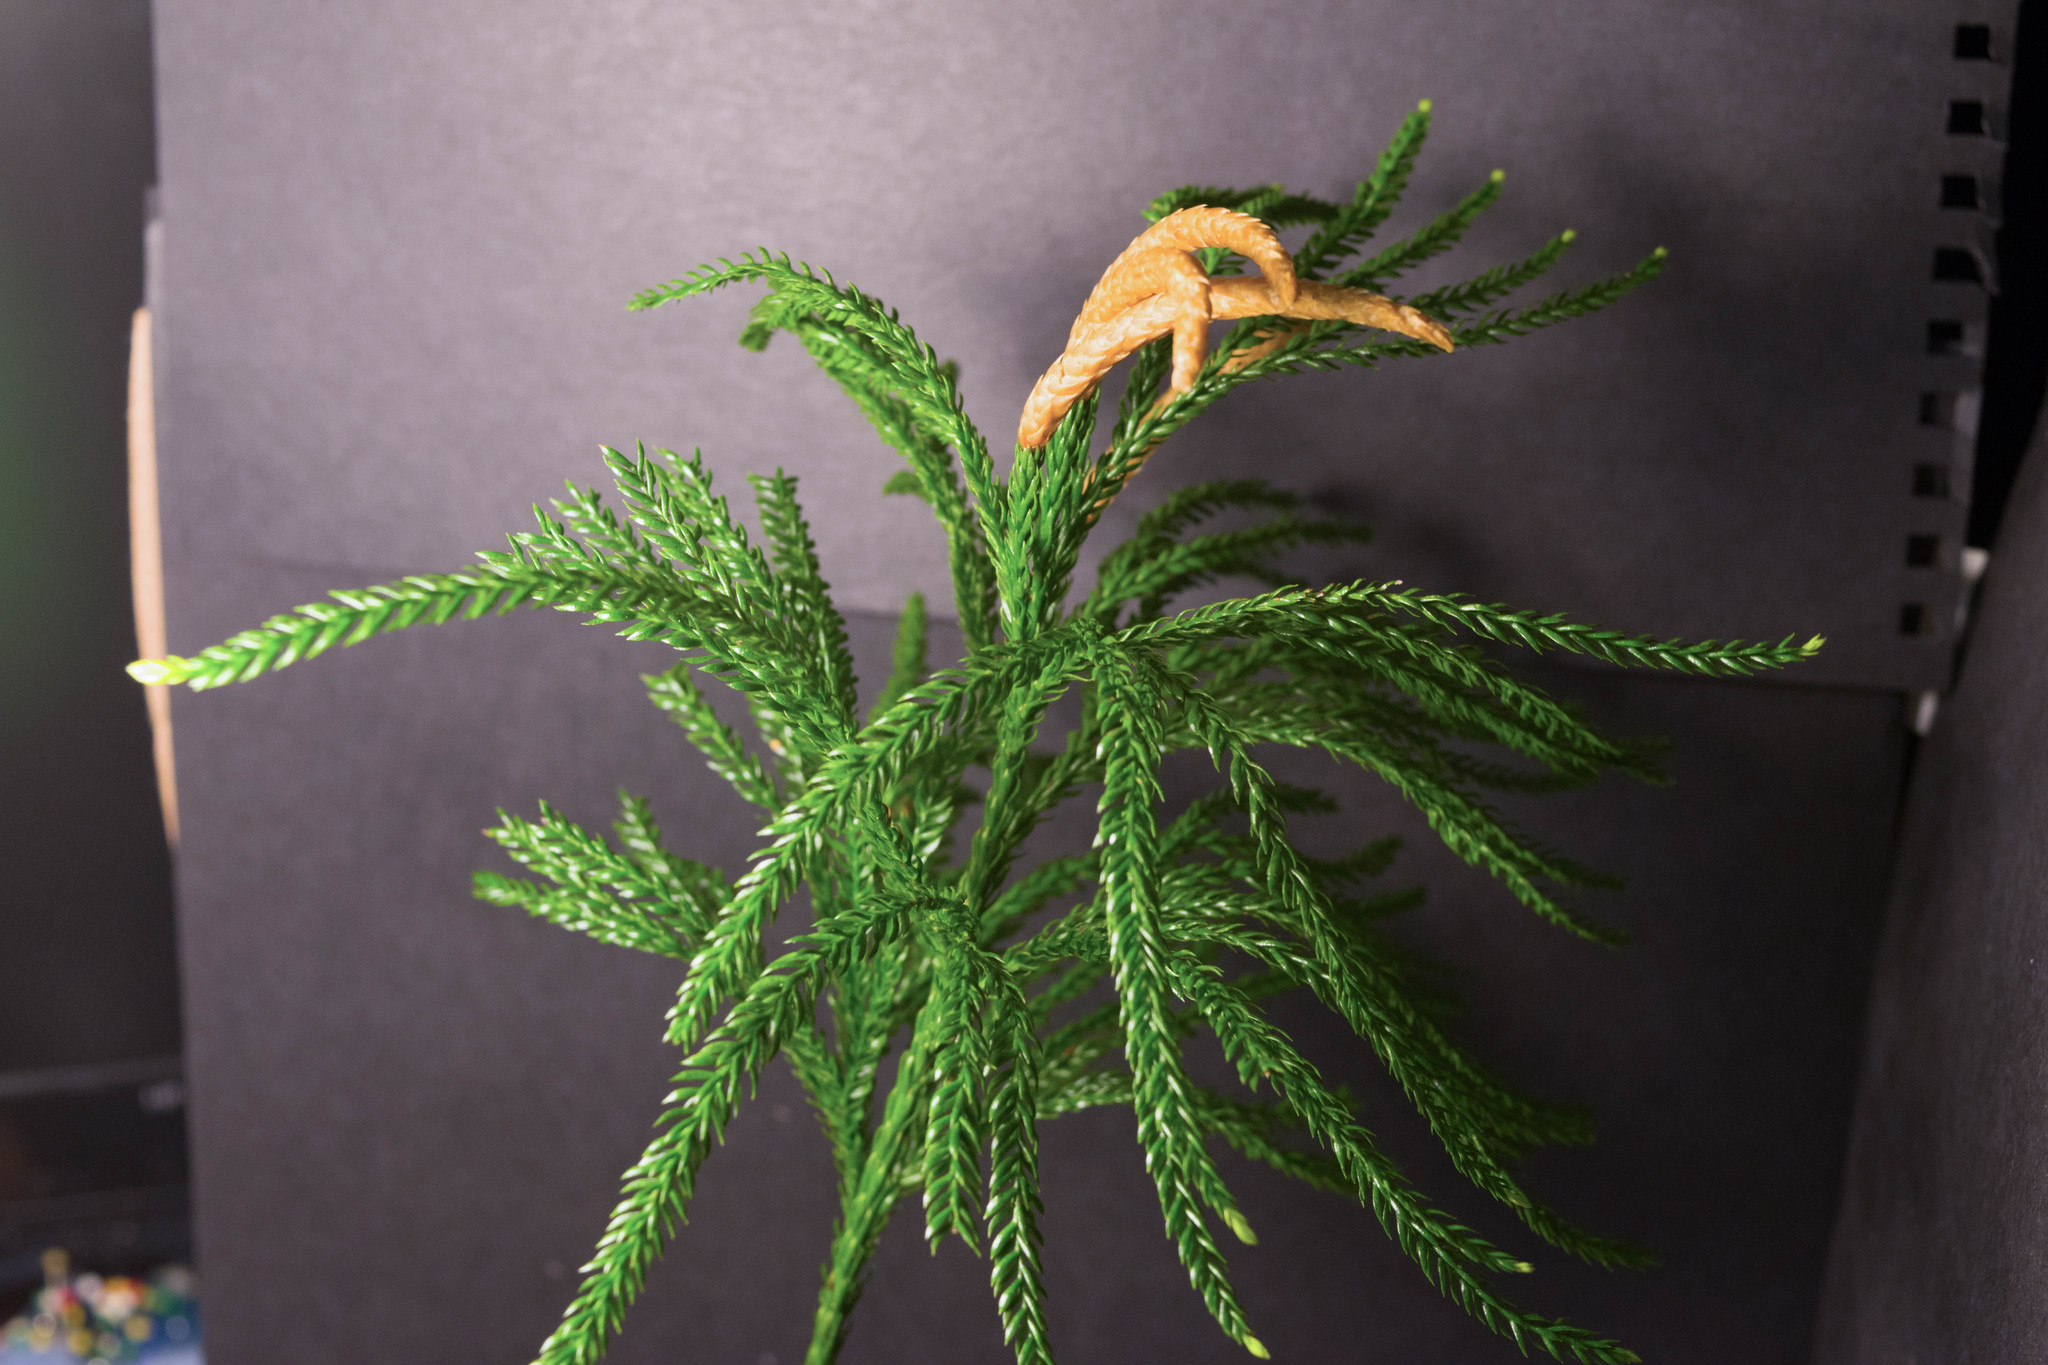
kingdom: Plantae
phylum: Tracheophyta
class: Lycopodiopsida
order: Lycopodiales
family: Lycopodiaceae
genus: Dendrolycopodium
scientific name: Dendrolycopodium obscurum
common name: Common ground-pine
